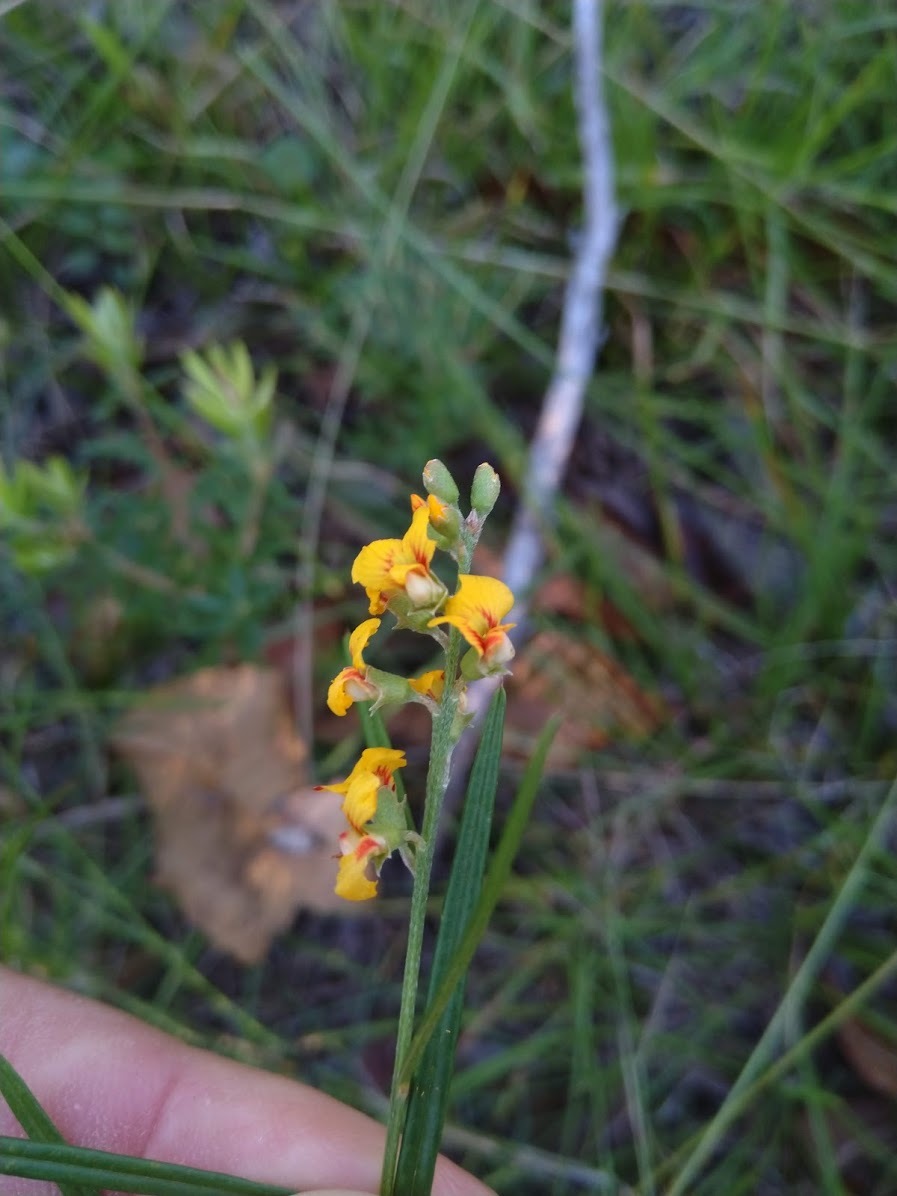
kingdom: Plantae
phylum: Tracheophyta
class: Magnoliopsida
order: Fabales
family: Fabaceae
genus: Chorizema
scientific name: Chorizema parviflorum
